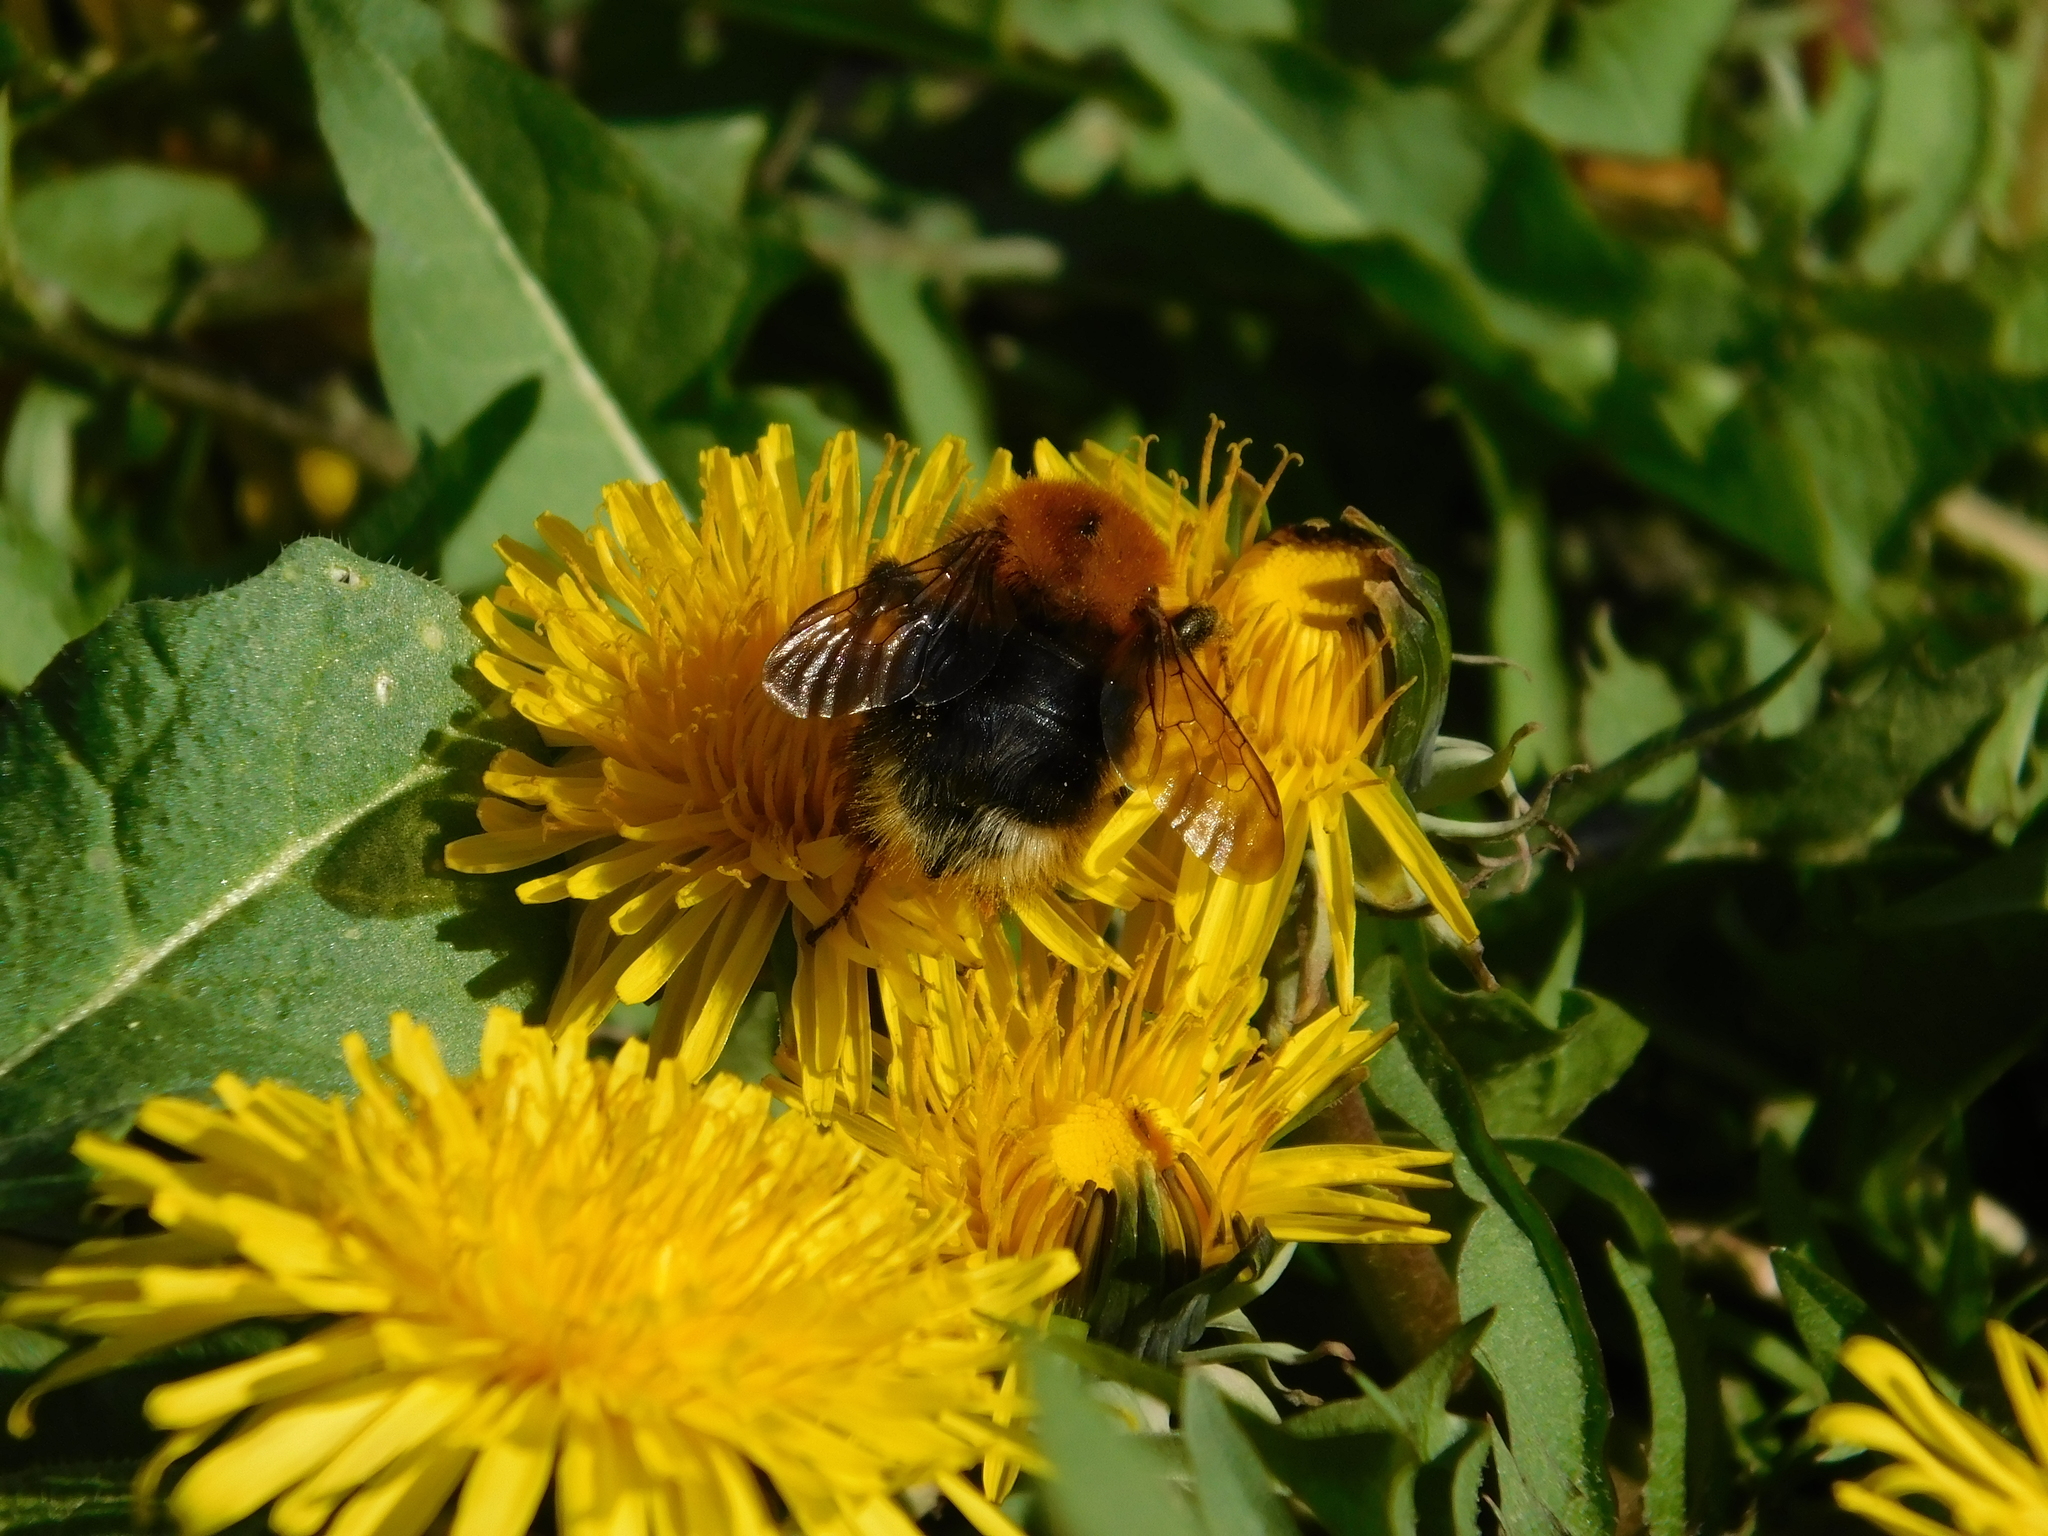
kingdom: Animalia
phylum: Arthropoda
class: Insecta
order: Hymenoptera
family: Apidae
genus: Bombus
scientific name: Bombus hypnorum
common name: New garden bumblebee
